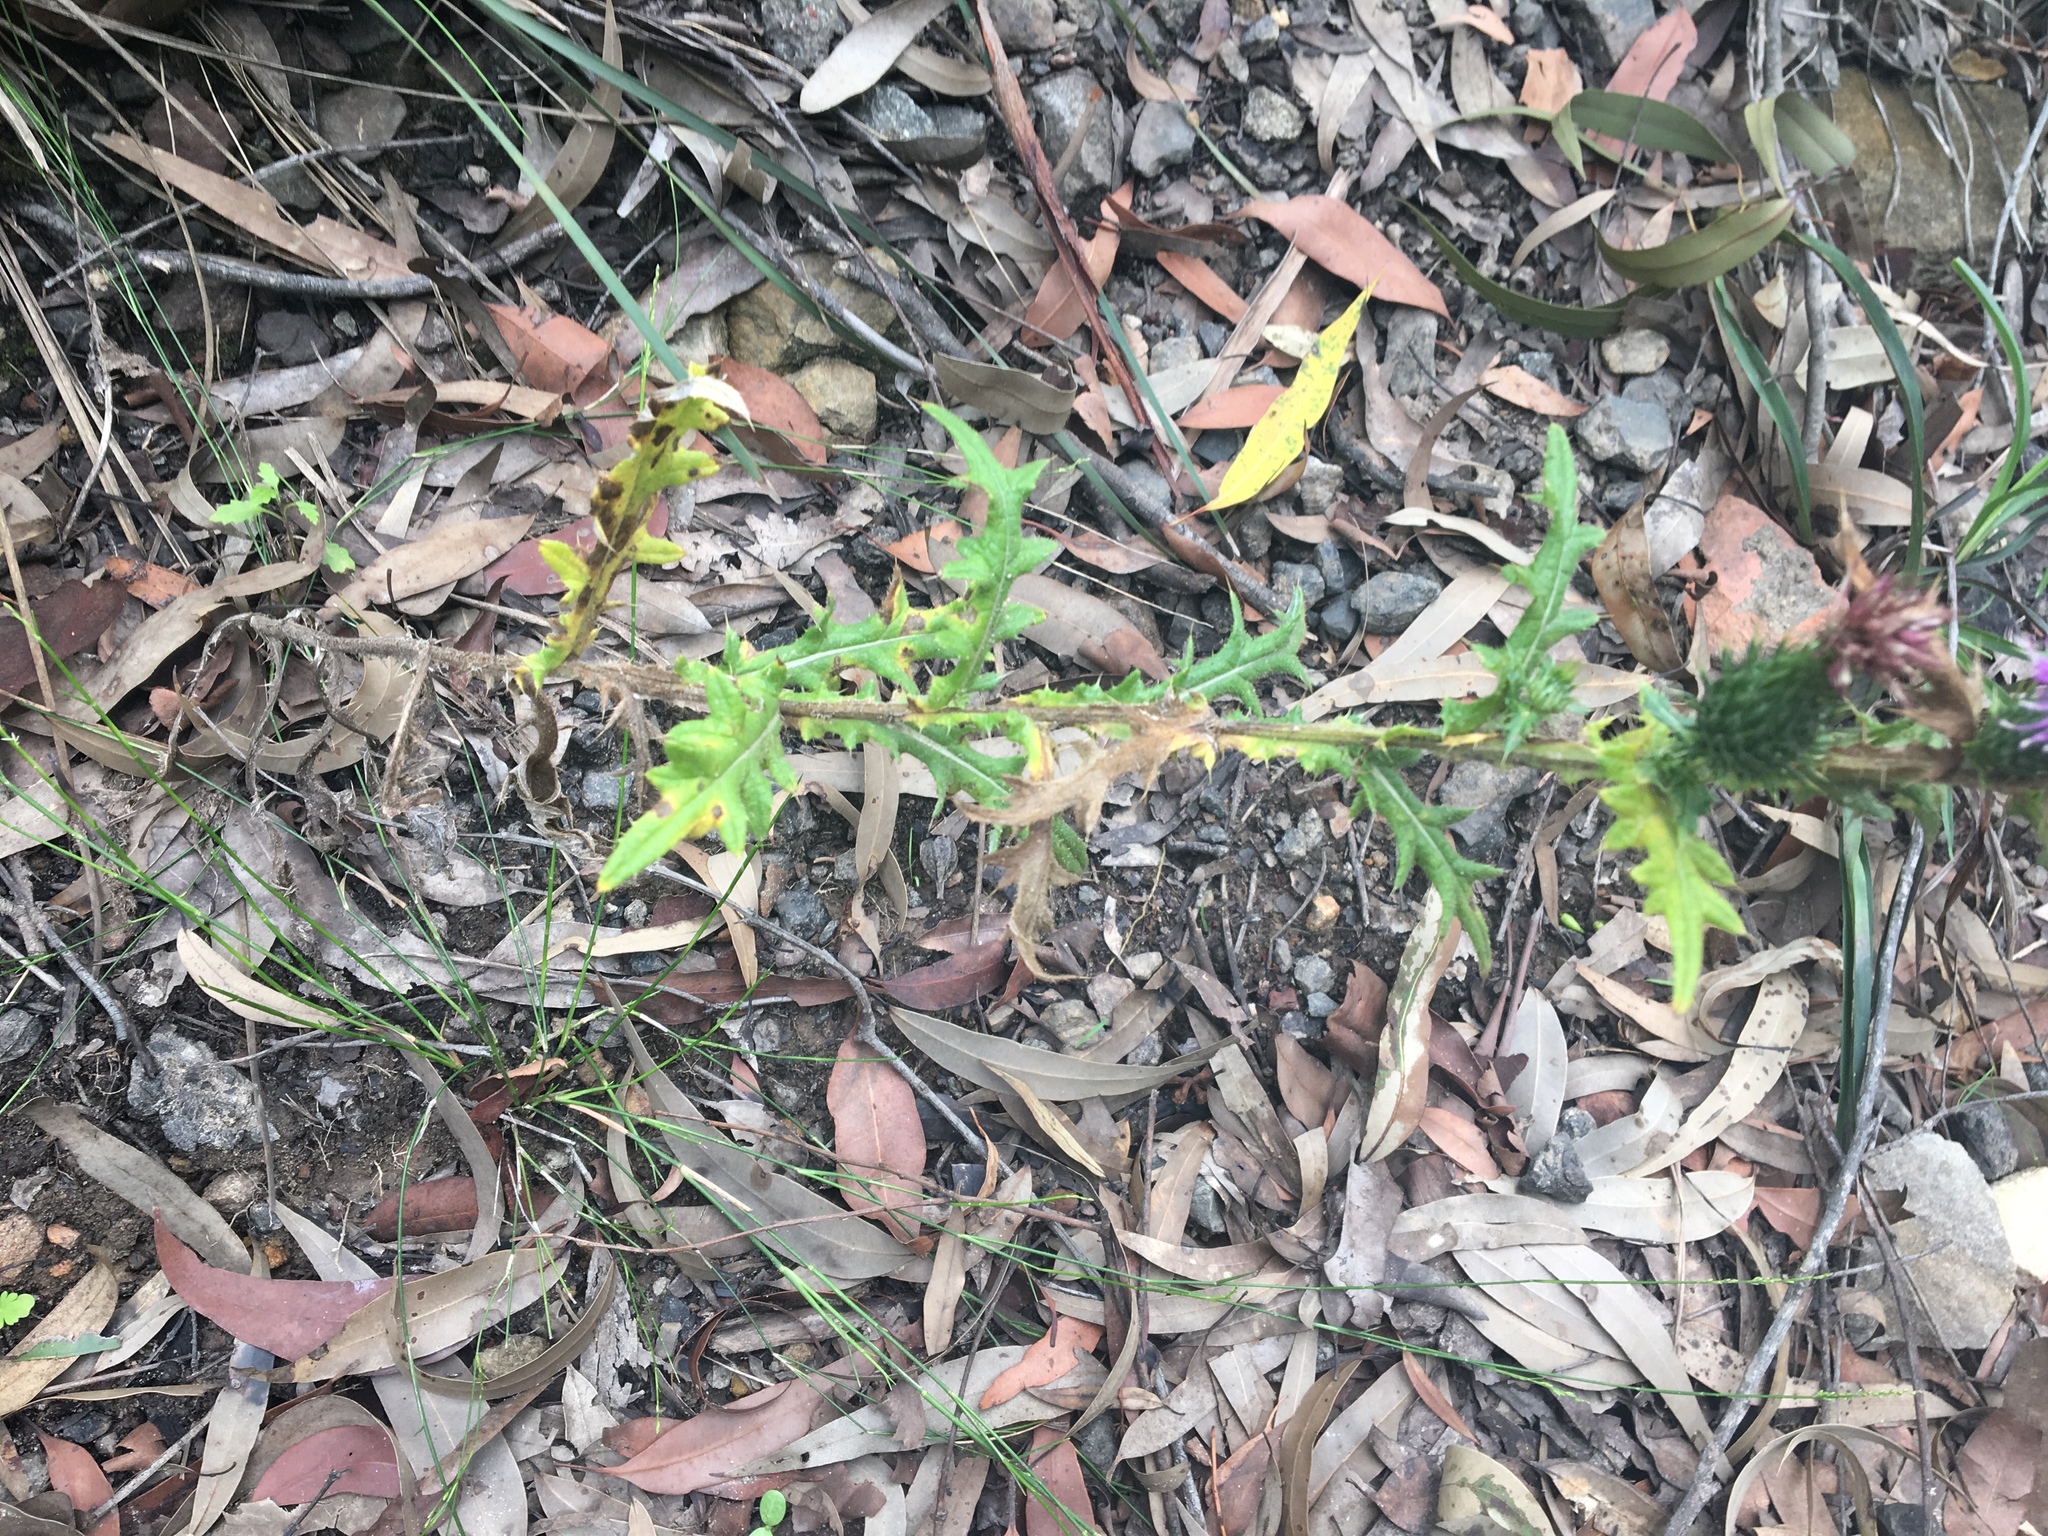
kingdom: Plantae
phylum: Tracheophyta
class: Magnoliopsida
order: Asterales
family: Asteraceae
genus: Cirsium
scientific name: Cirsium vulgare
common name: Bull thistle
